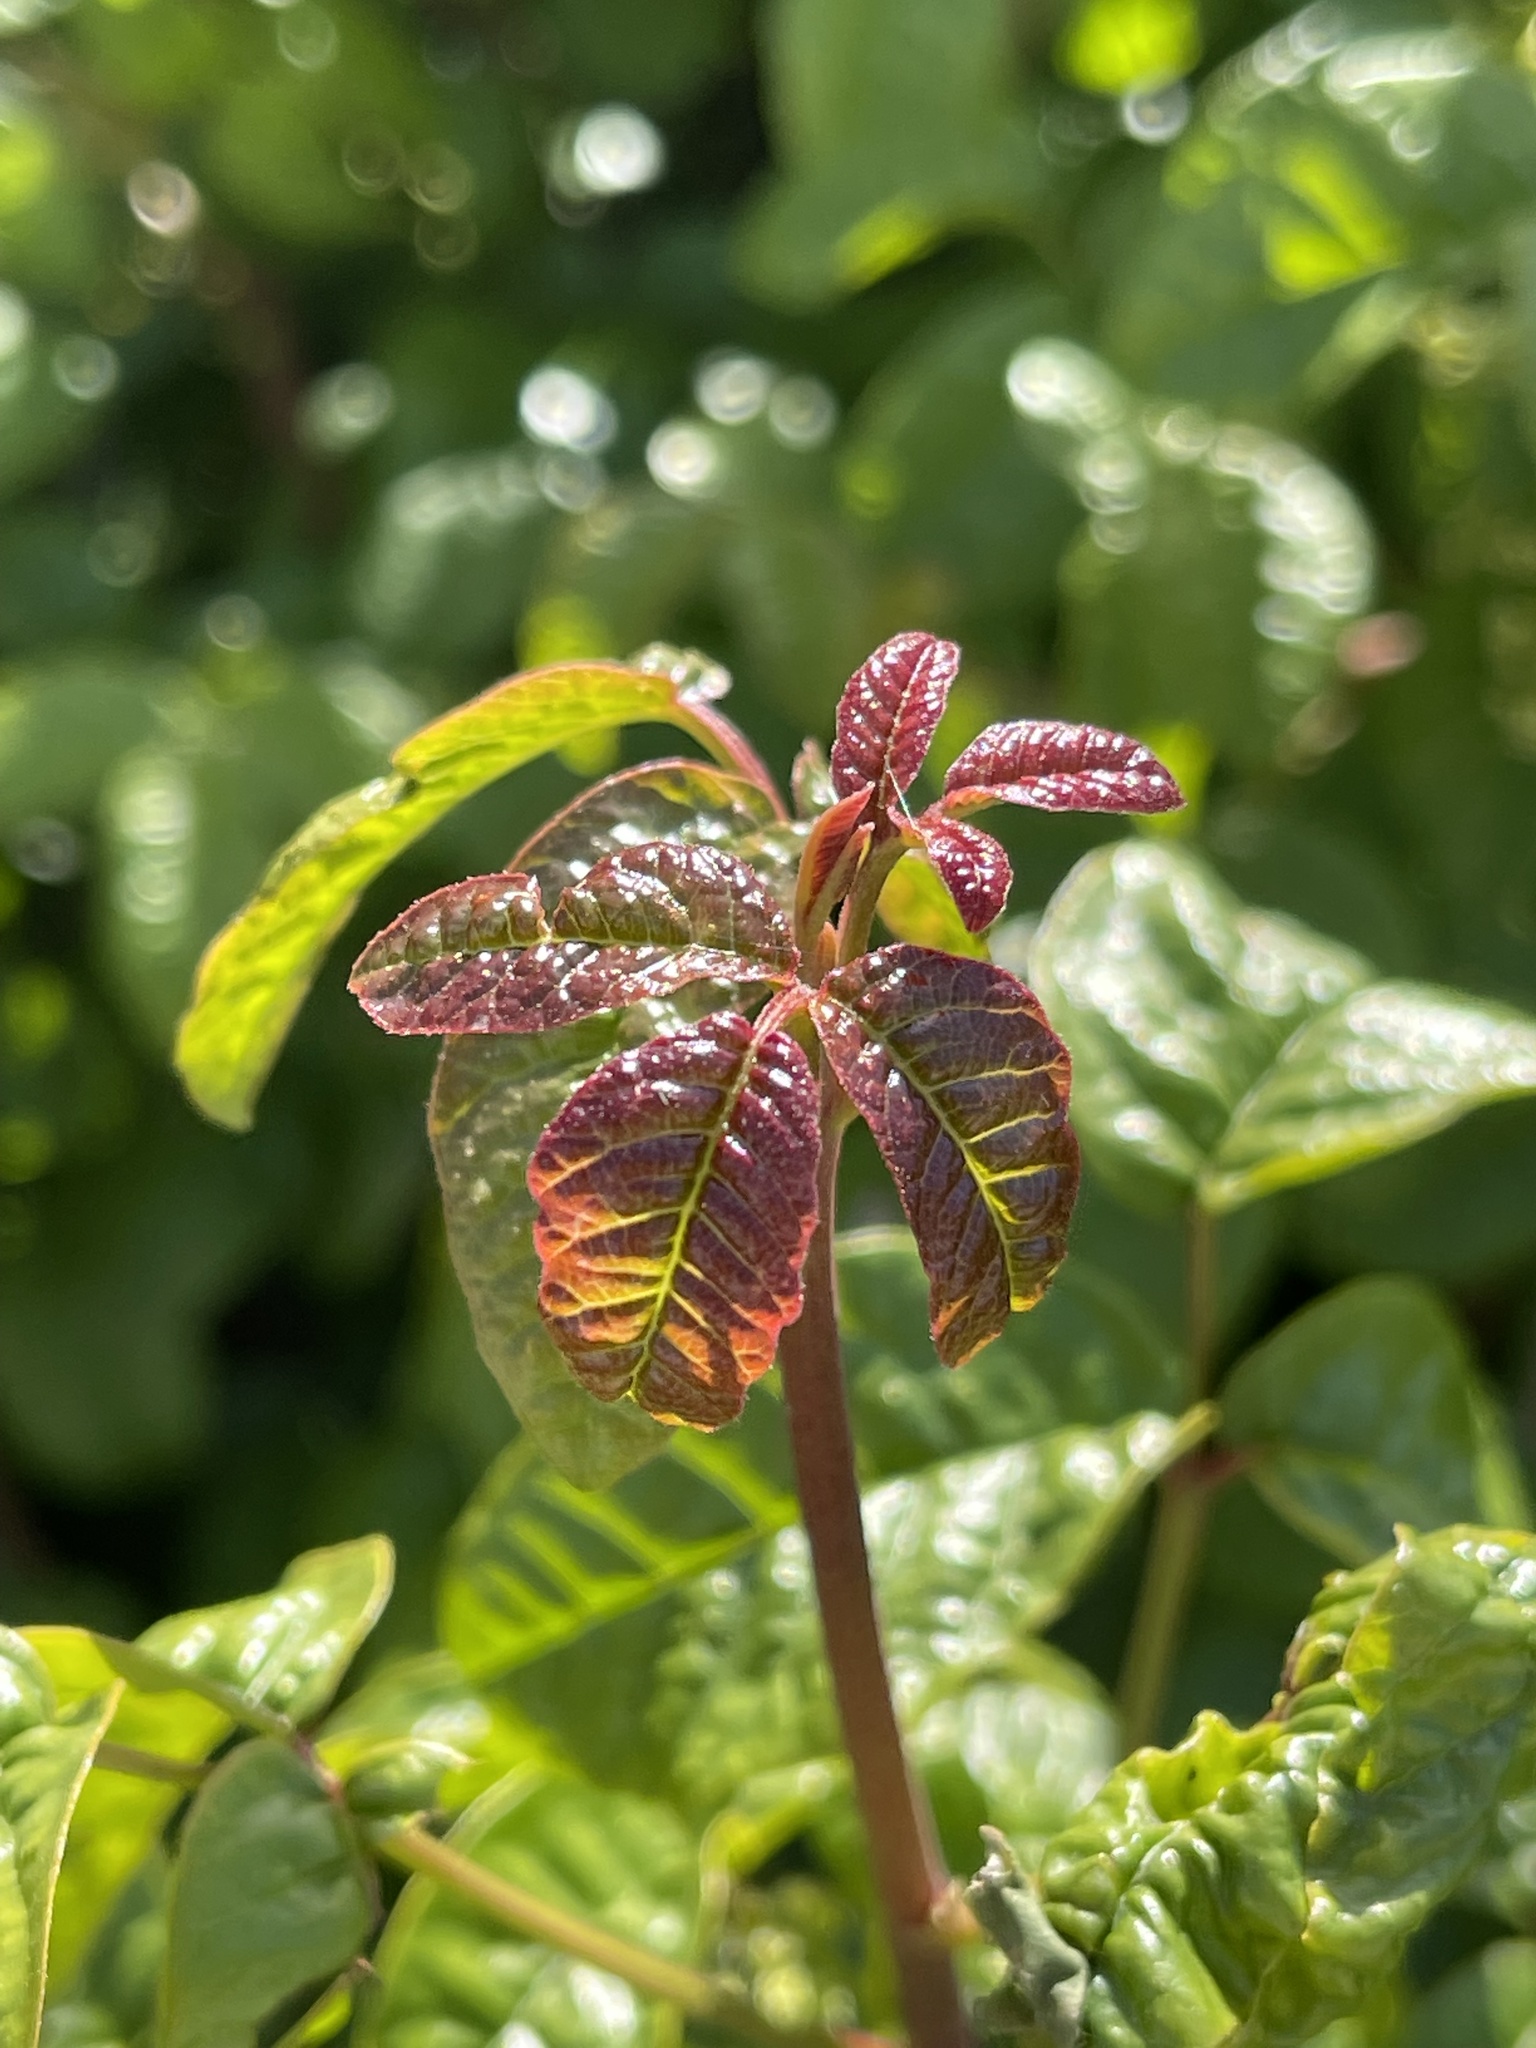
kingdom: Plantae
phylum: Tracheophyta
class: Magnoliopsida
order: Sapindales
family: Anacardiaceae
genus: Toxicodendron
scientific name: Toxicodendron diversilobum
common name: Pacific poison-oak
